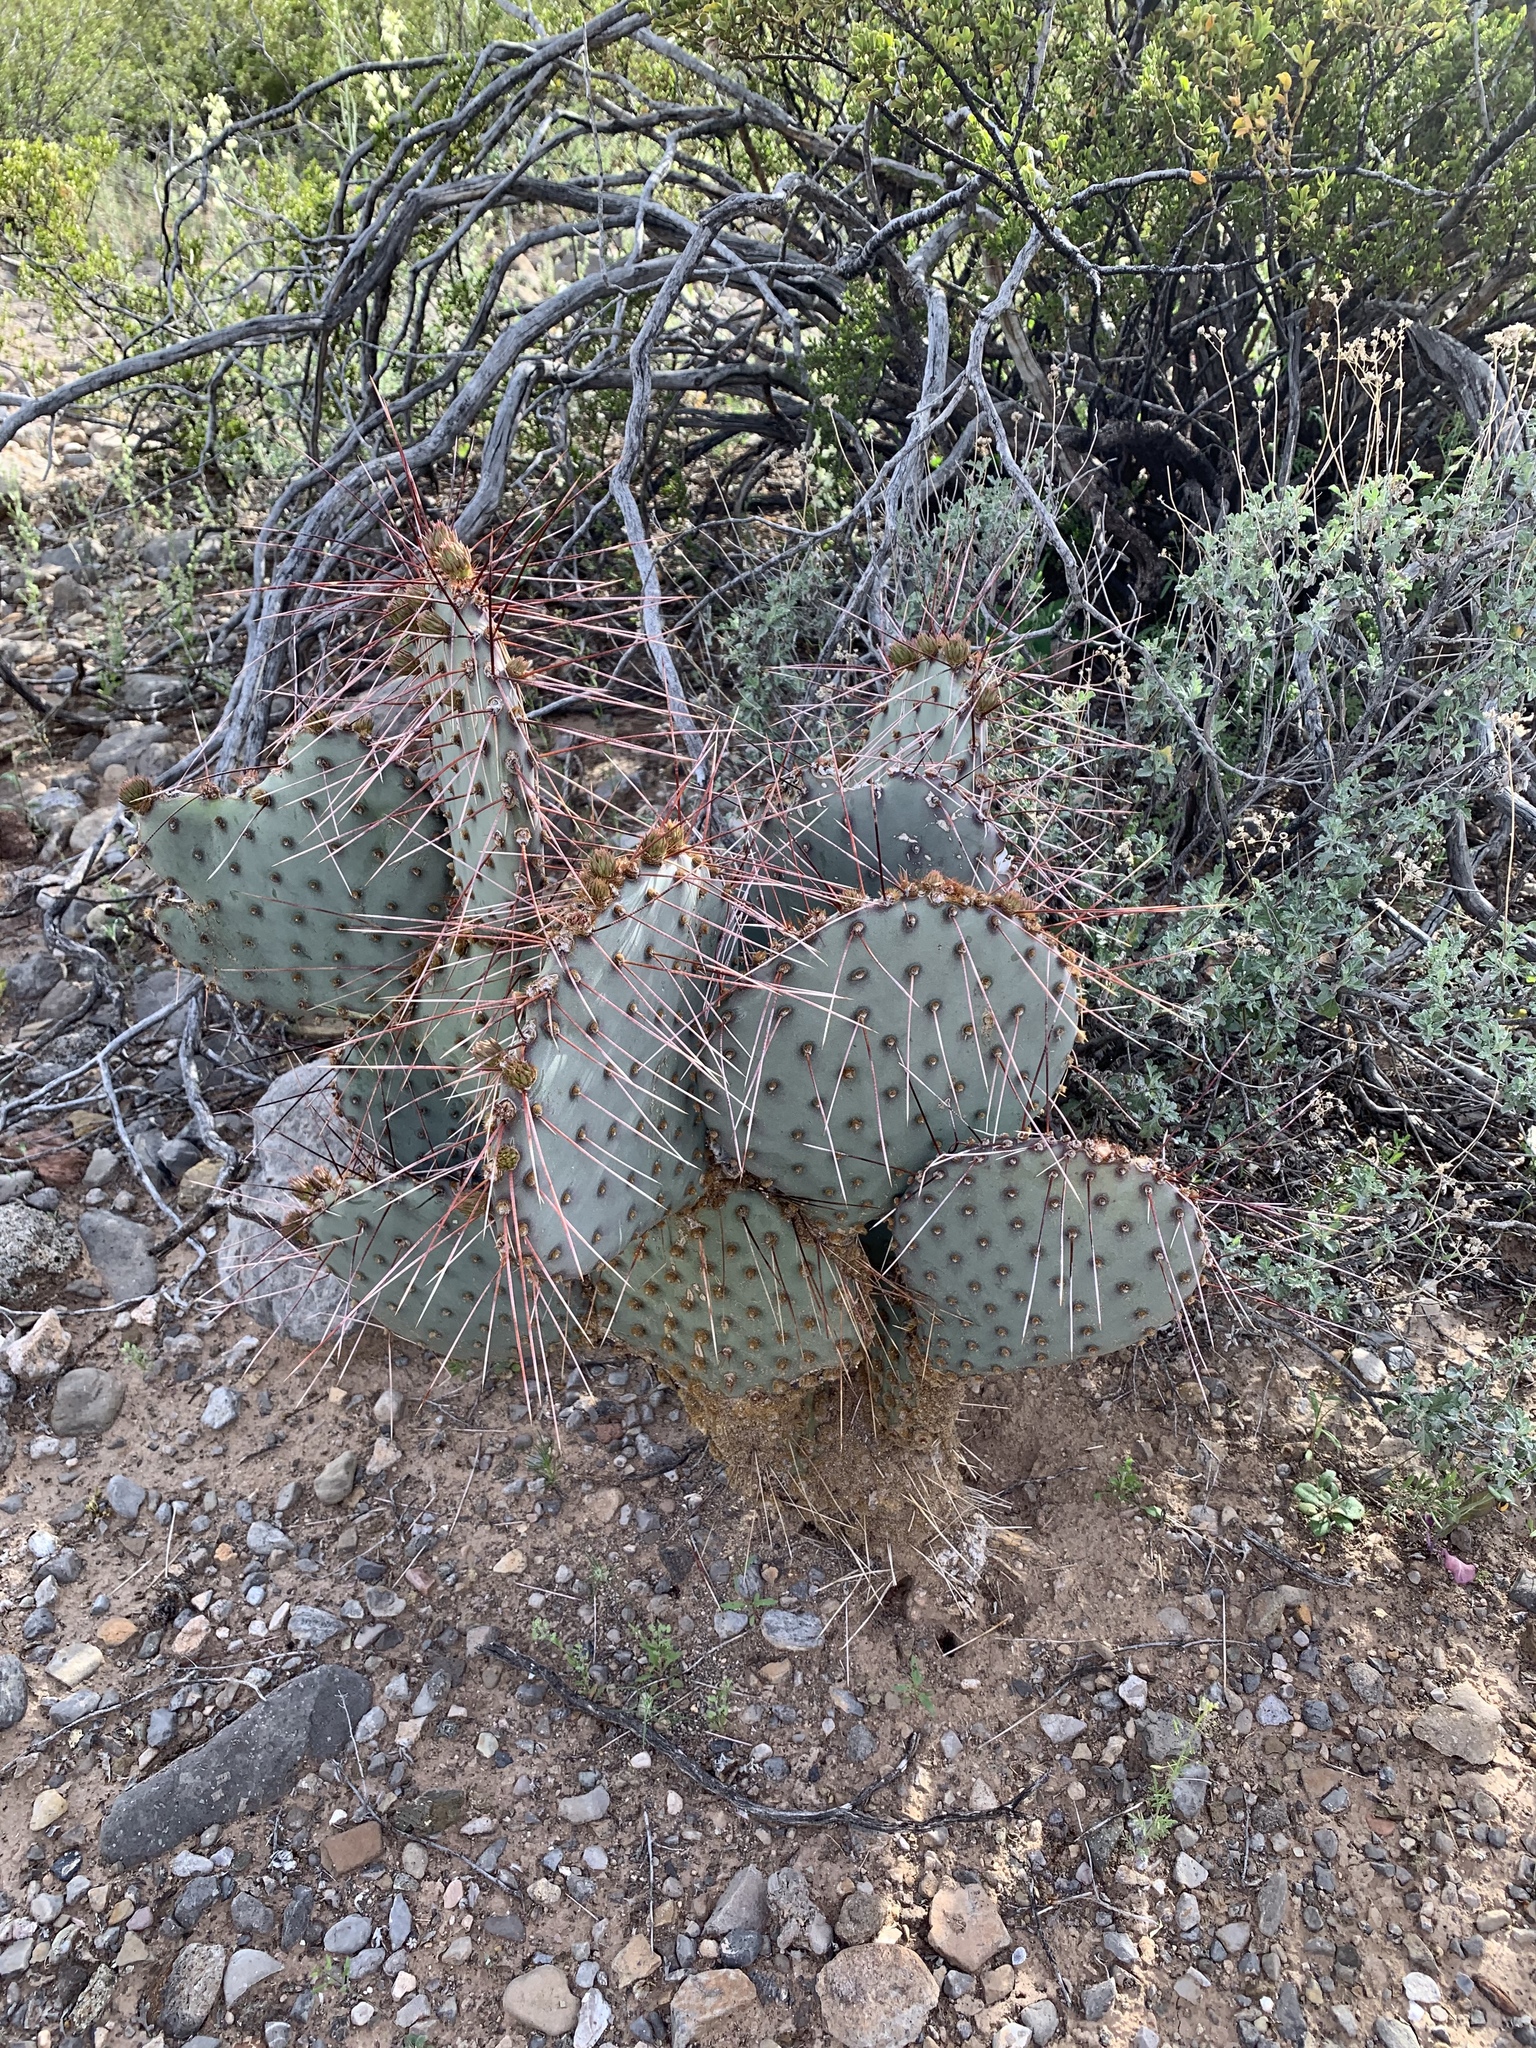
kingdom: Plantae
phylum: Tracheophyta
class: Magnoliopsida
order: Caryophyllales
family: Cactaceae
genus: Opuntia
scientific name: Opuntia macrocentra
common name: Purple prickly-pear
